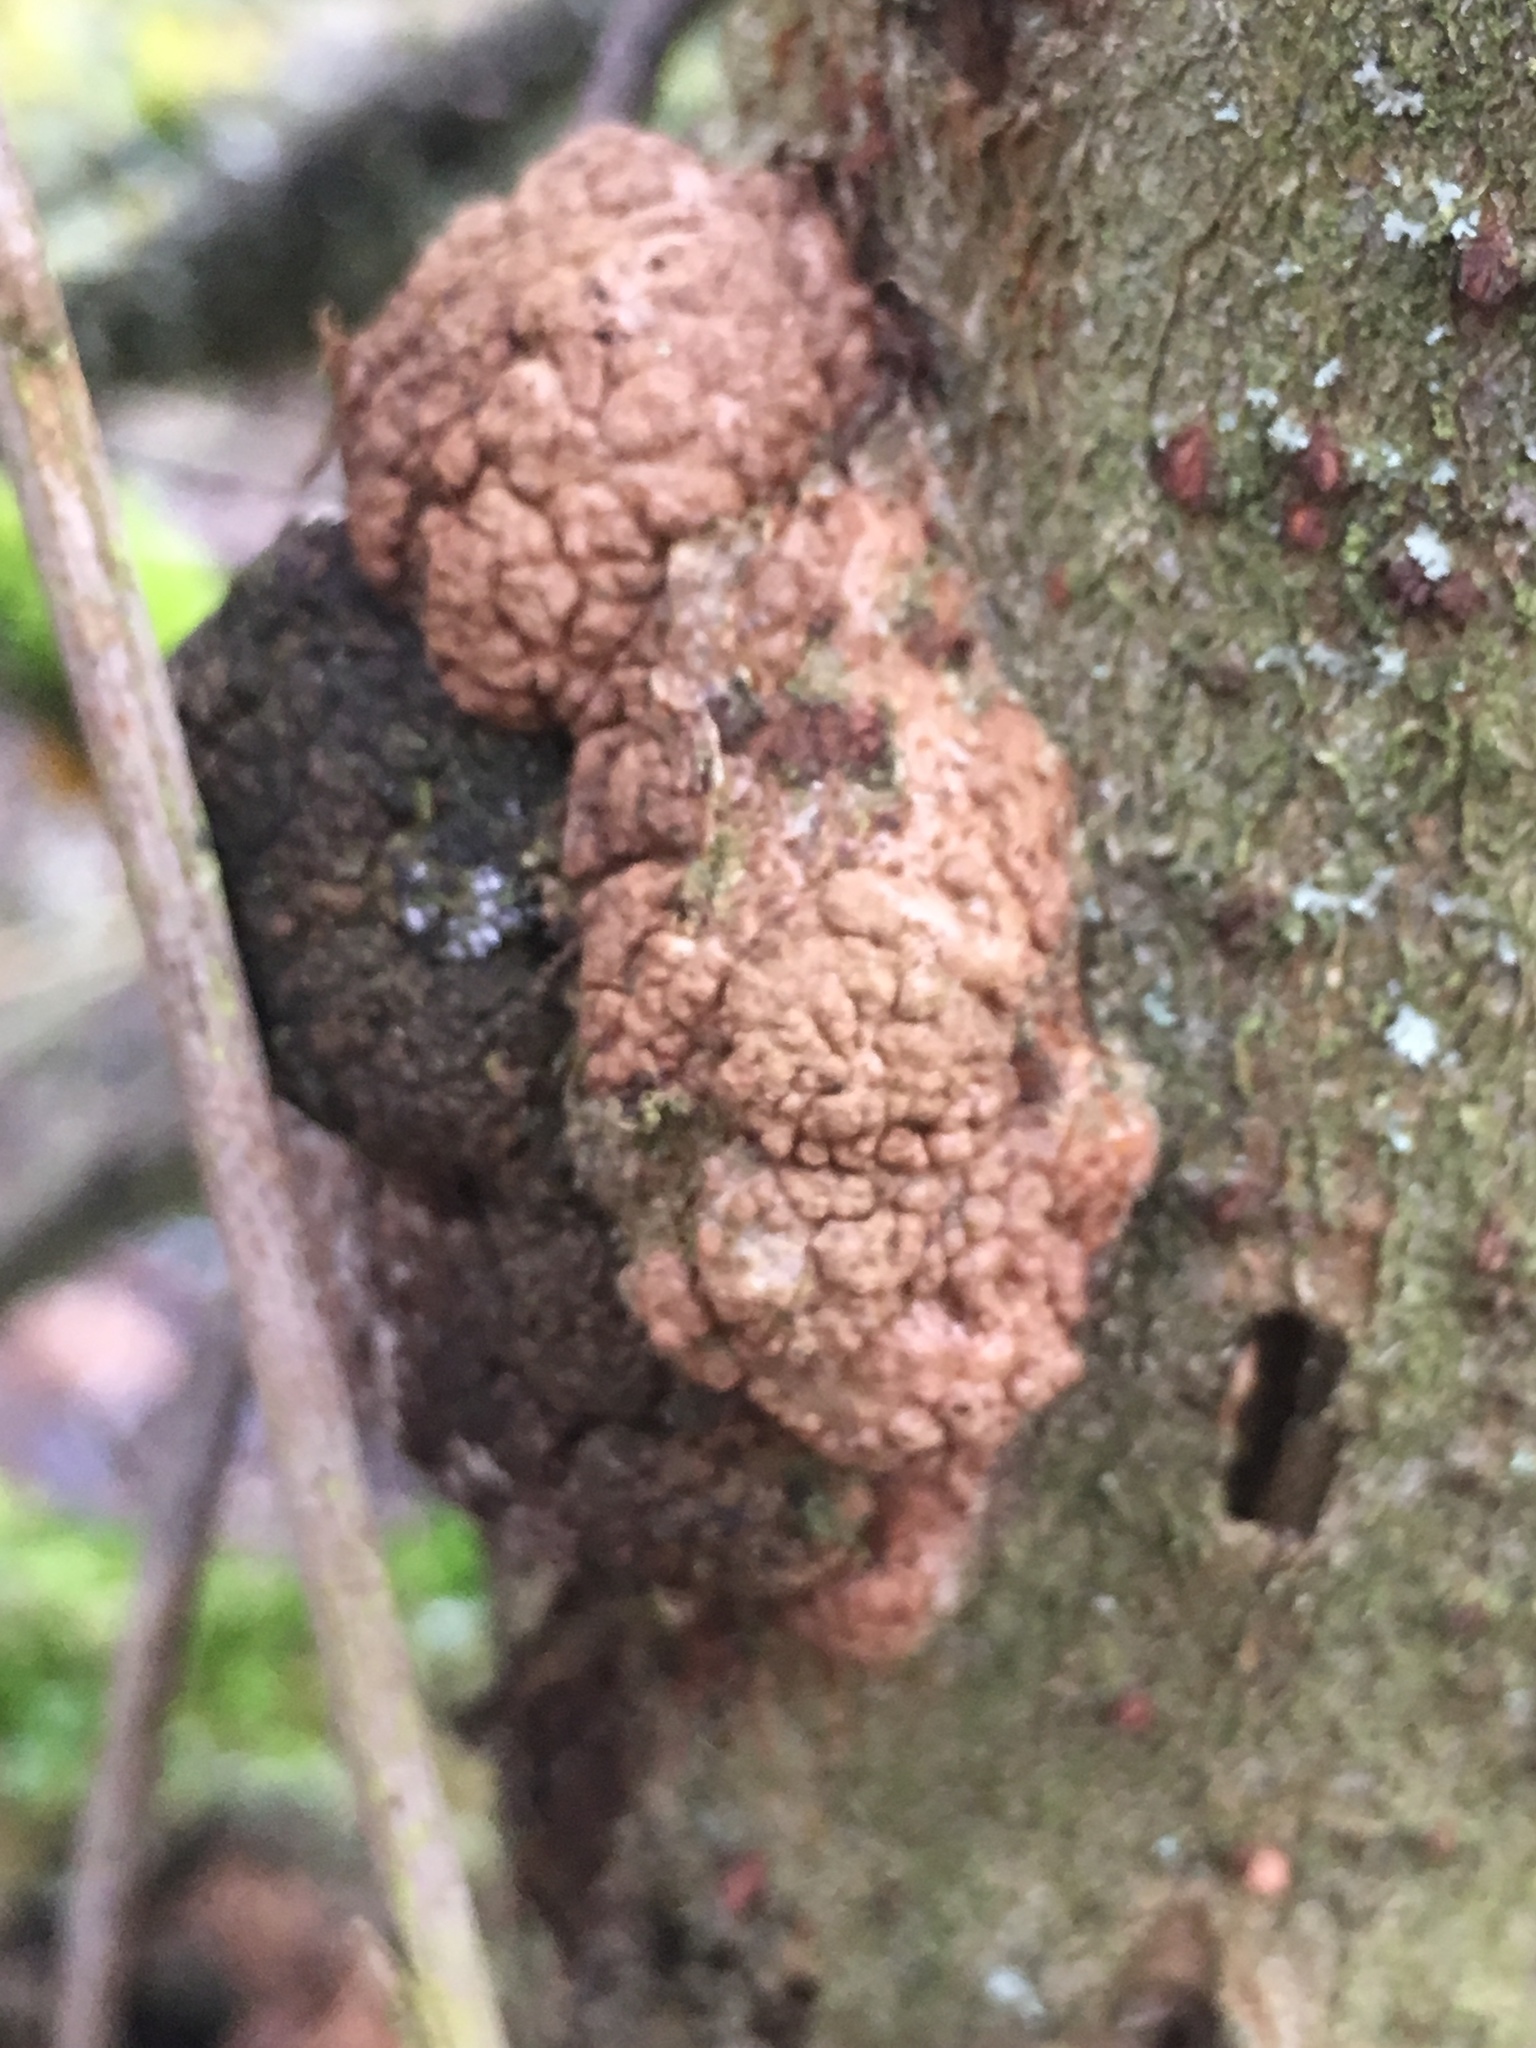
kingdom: Bacteria
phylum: Proteobacteria
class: Alphaproteobacteria
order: Rhizobiales
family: Rhizobiaceae
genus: Rhizobium
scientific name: Rhizobium Agrobacterium radiobacter
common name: Bacterial crown gall
